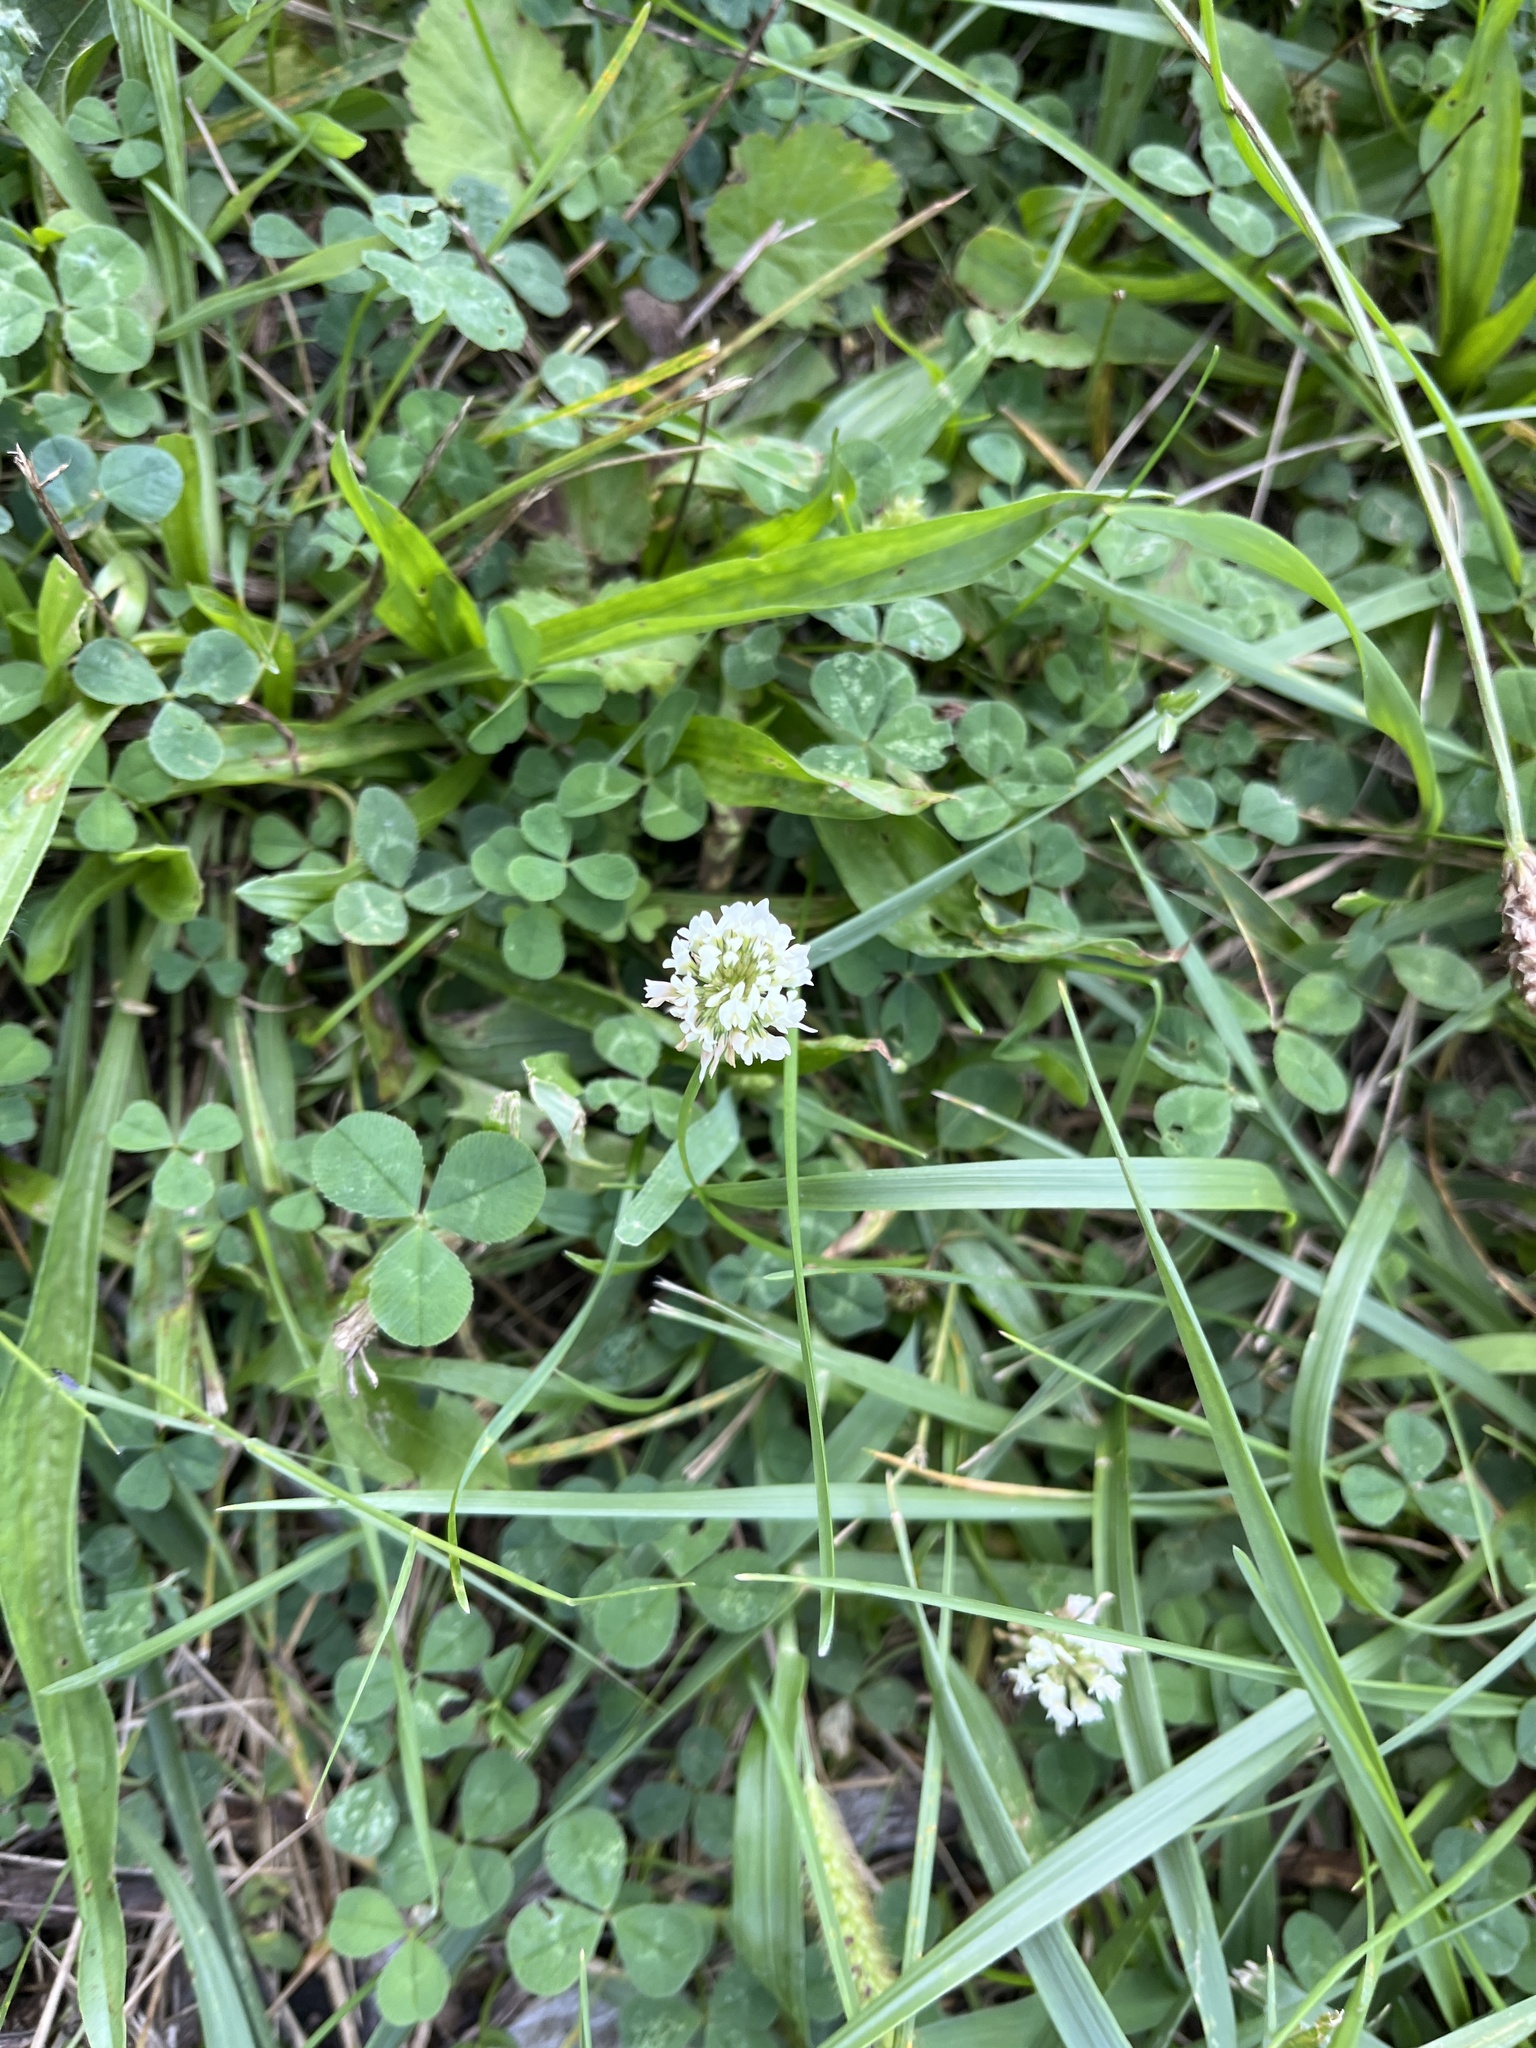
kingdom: Plantae
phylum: Tracheophyta
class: Magnoliopsida
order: Fabales
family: Fabaceae
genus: Trifolium
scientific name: Trifolium repens
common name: White clover
